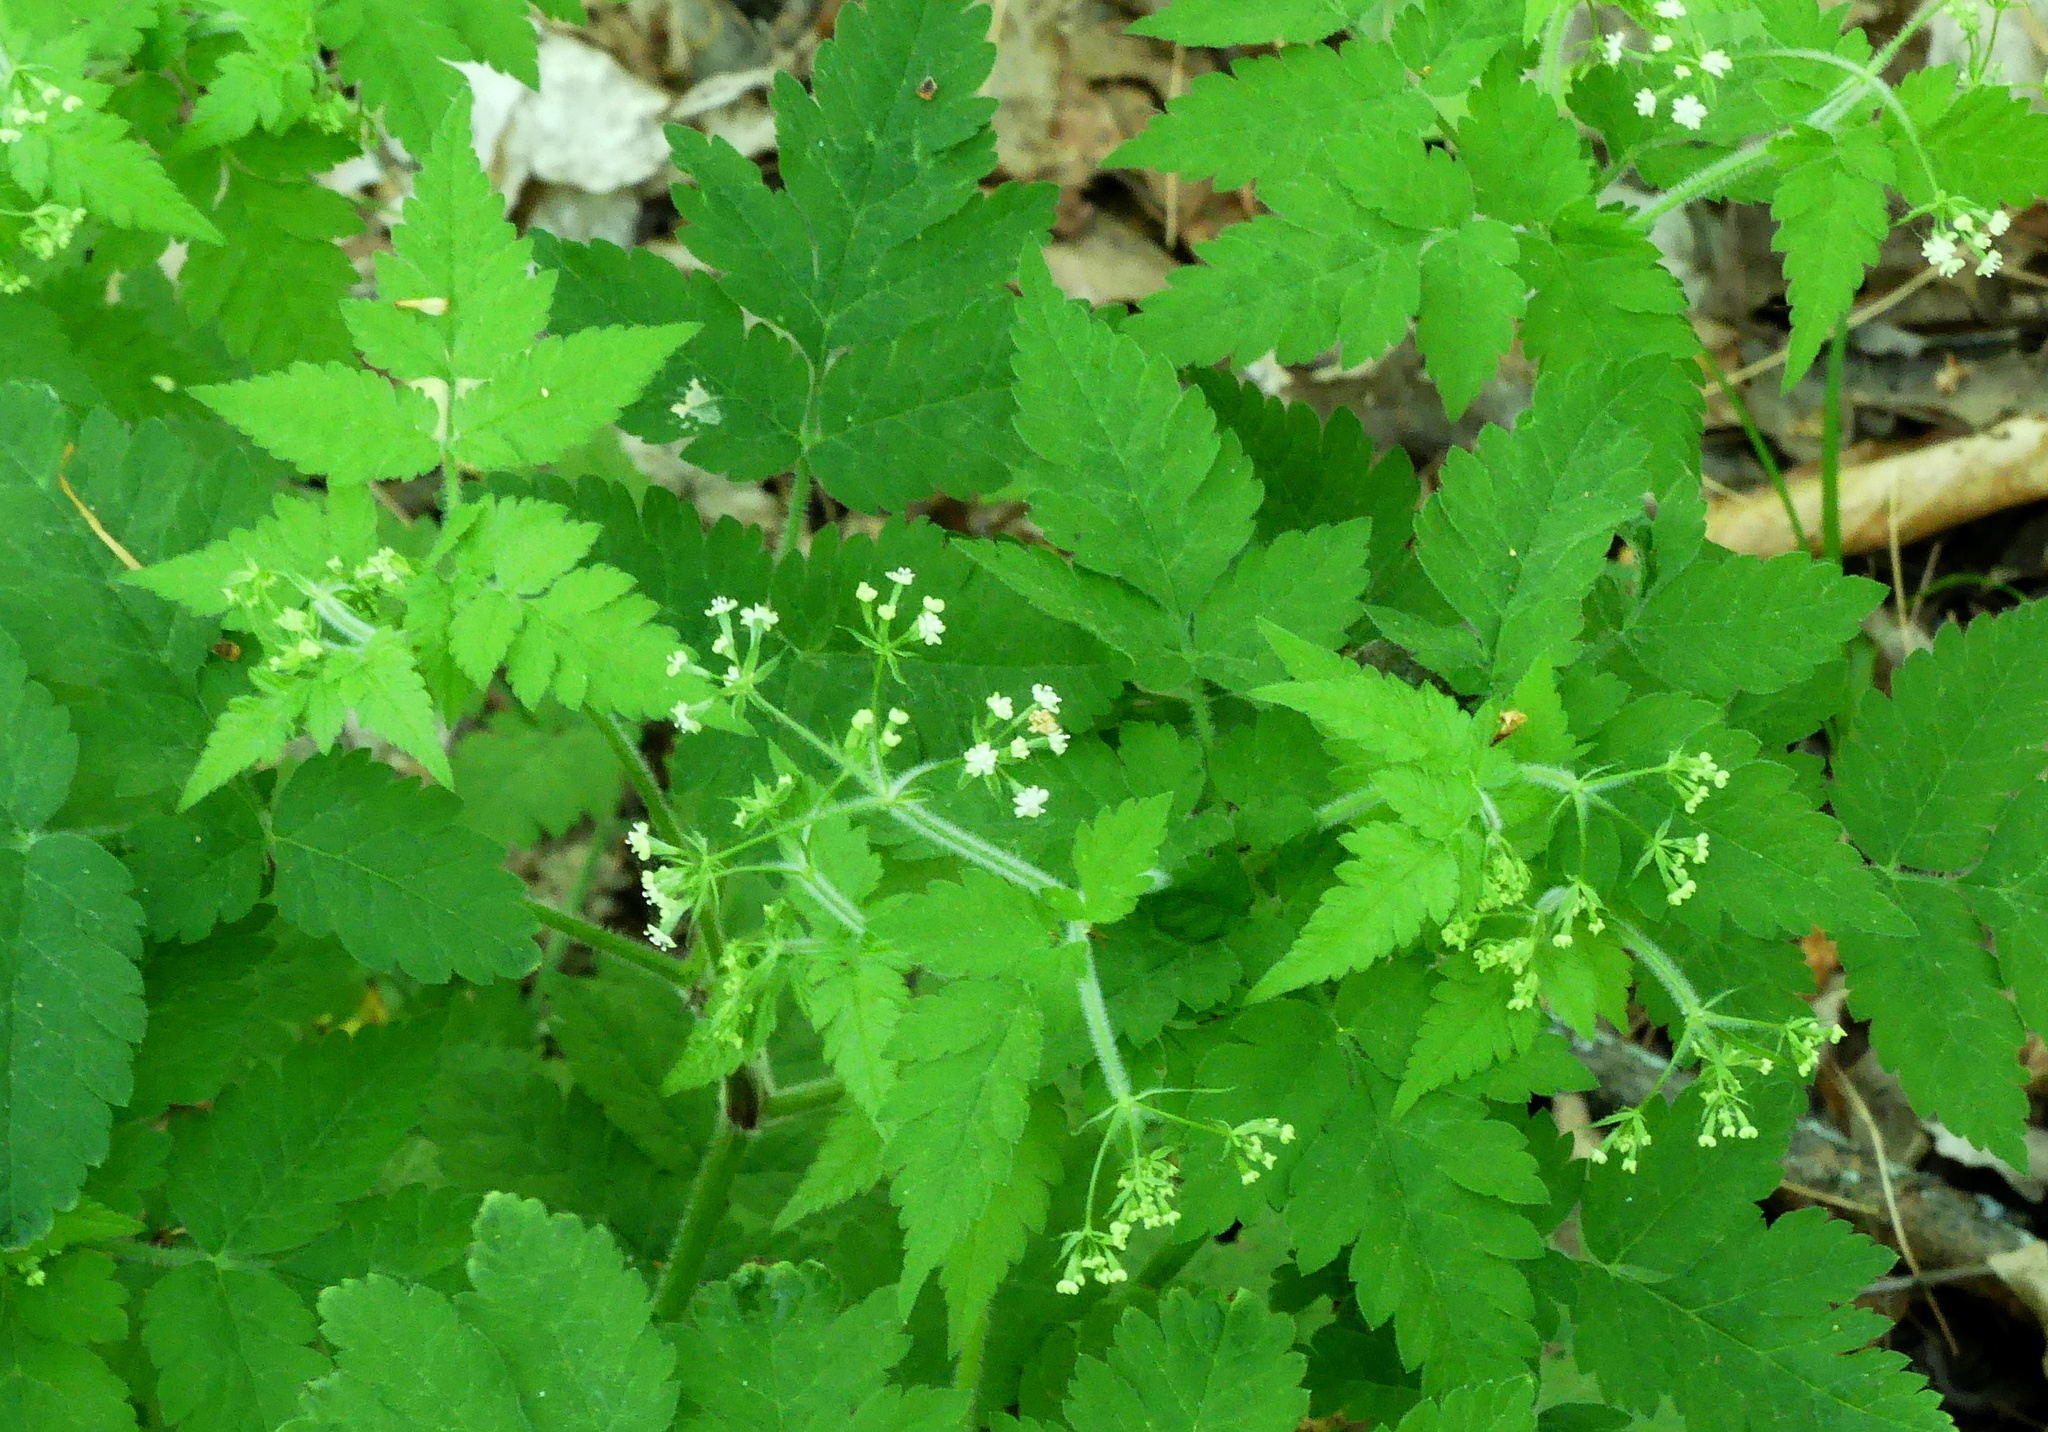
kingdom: Plantae
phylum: Tracheophyta
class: Magnoliopsida
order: Apiales
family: Apiaceae
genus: Osmorhiza
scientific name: Osmorhiza claytonii
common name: Hairy sweet cicely
